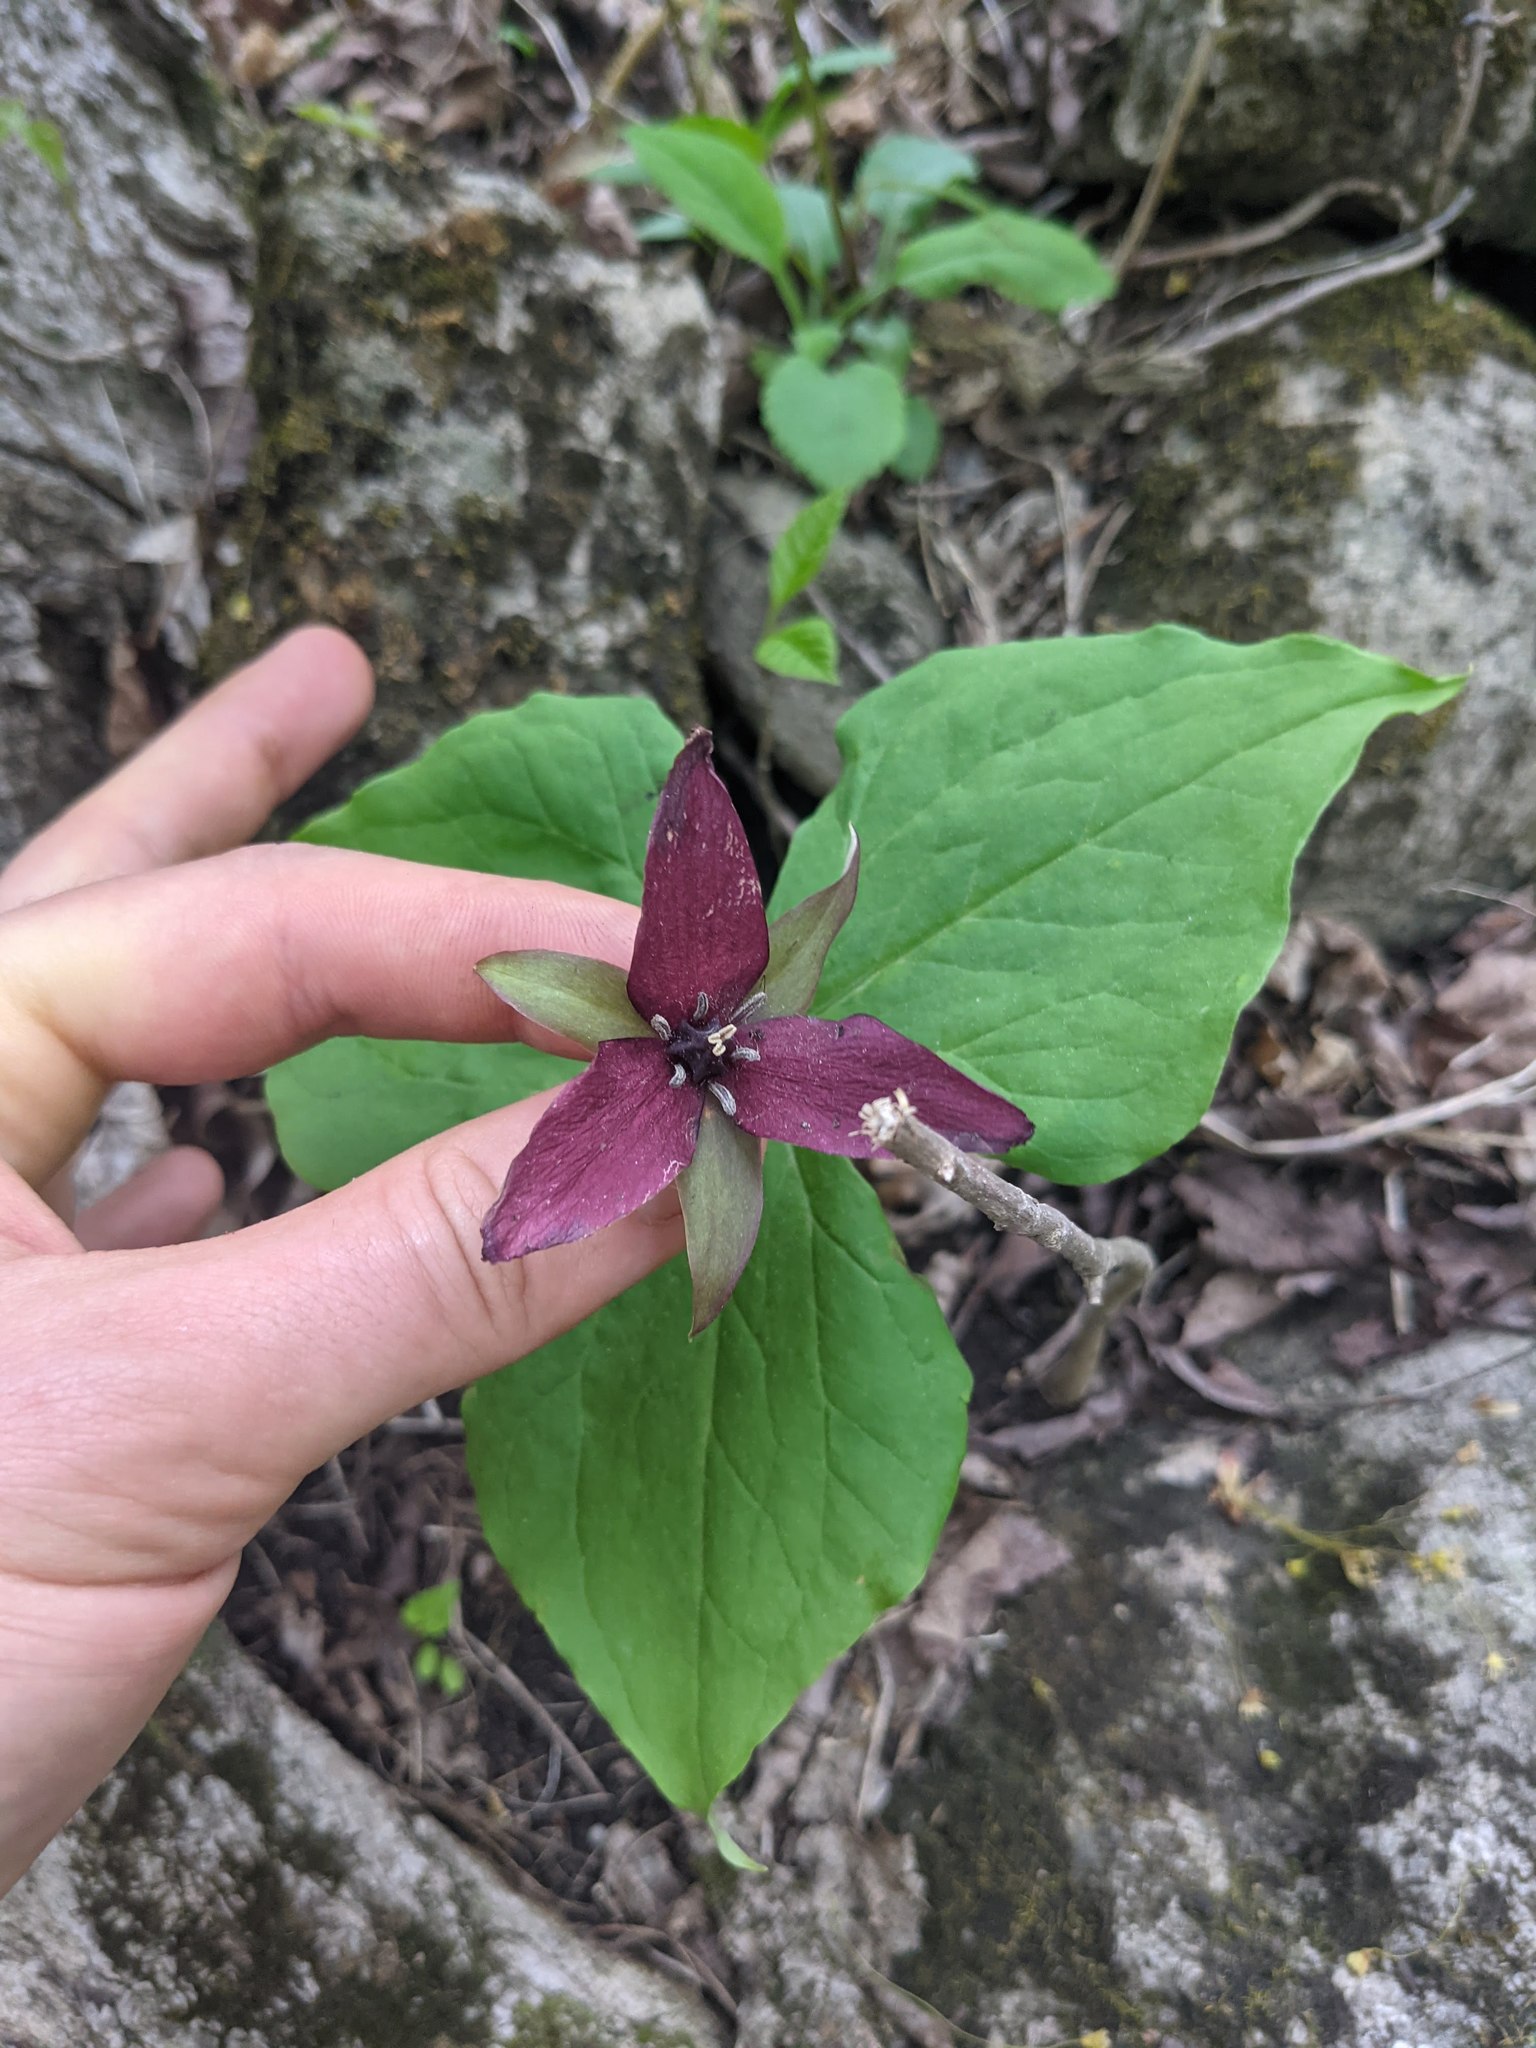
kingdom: Plantae
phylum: Tracheophyta
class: Liliopsida
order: Liliales
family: Melanthiaceae
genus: Trillium
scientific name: Trillium erectum
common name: Purple trillium
